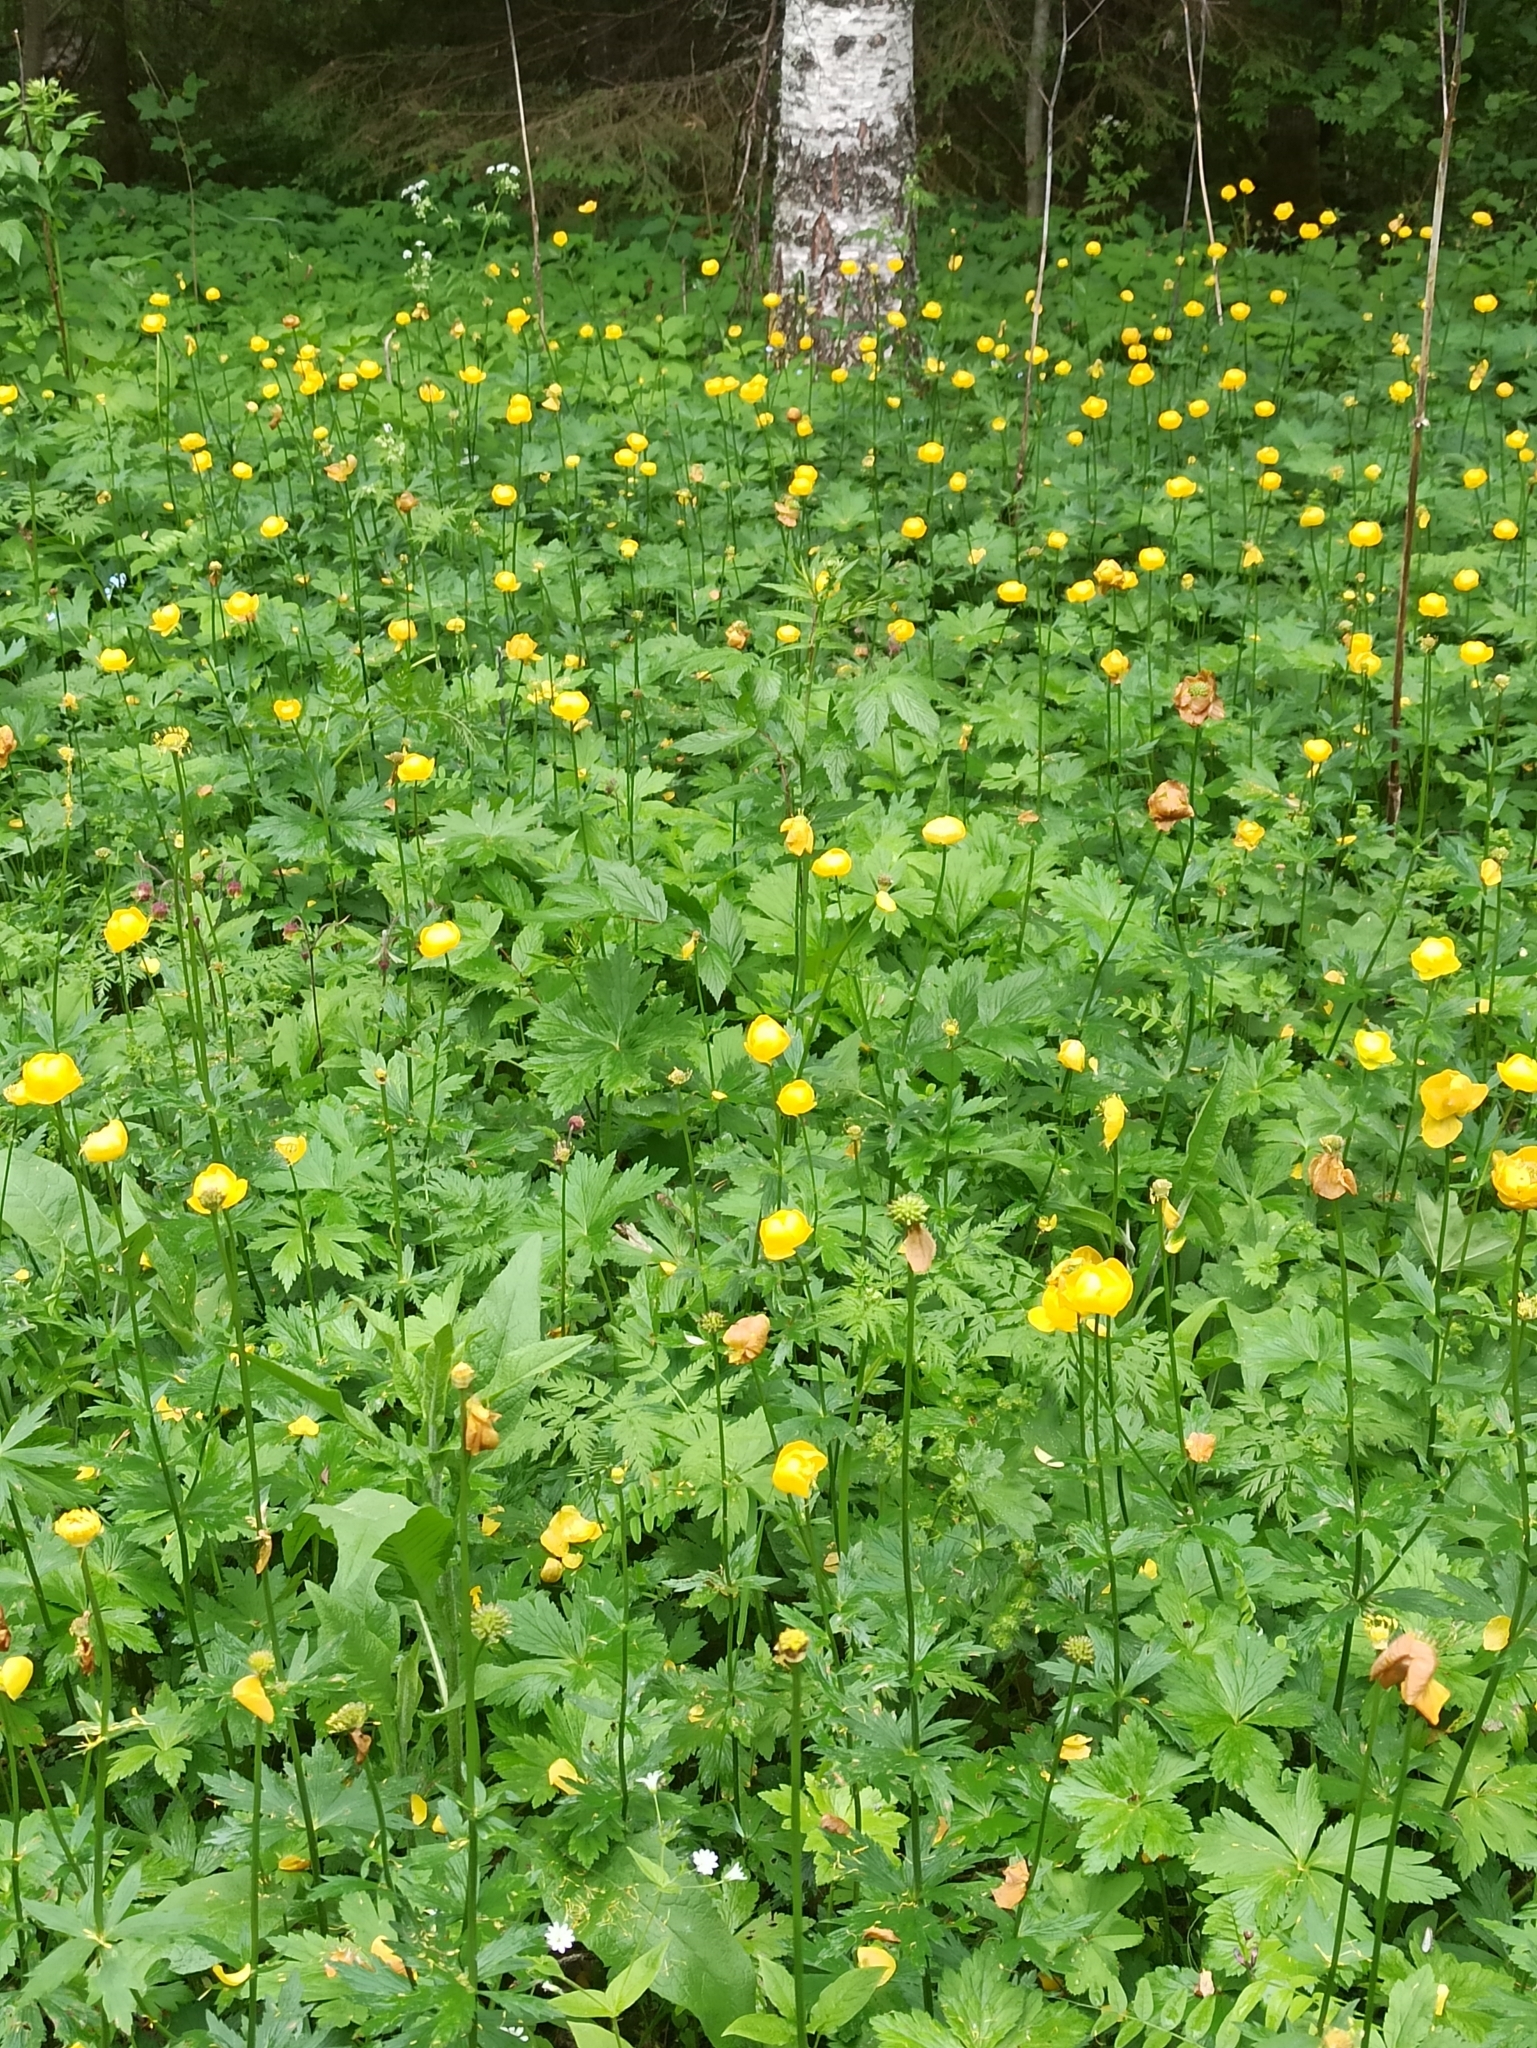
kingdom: Plantae
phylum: Tracheophyta
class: Magnoliopsida
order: Ranunculales
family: Ranunculaceae
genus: Trollius
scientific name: Trollius europaeus
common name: European globeflower
